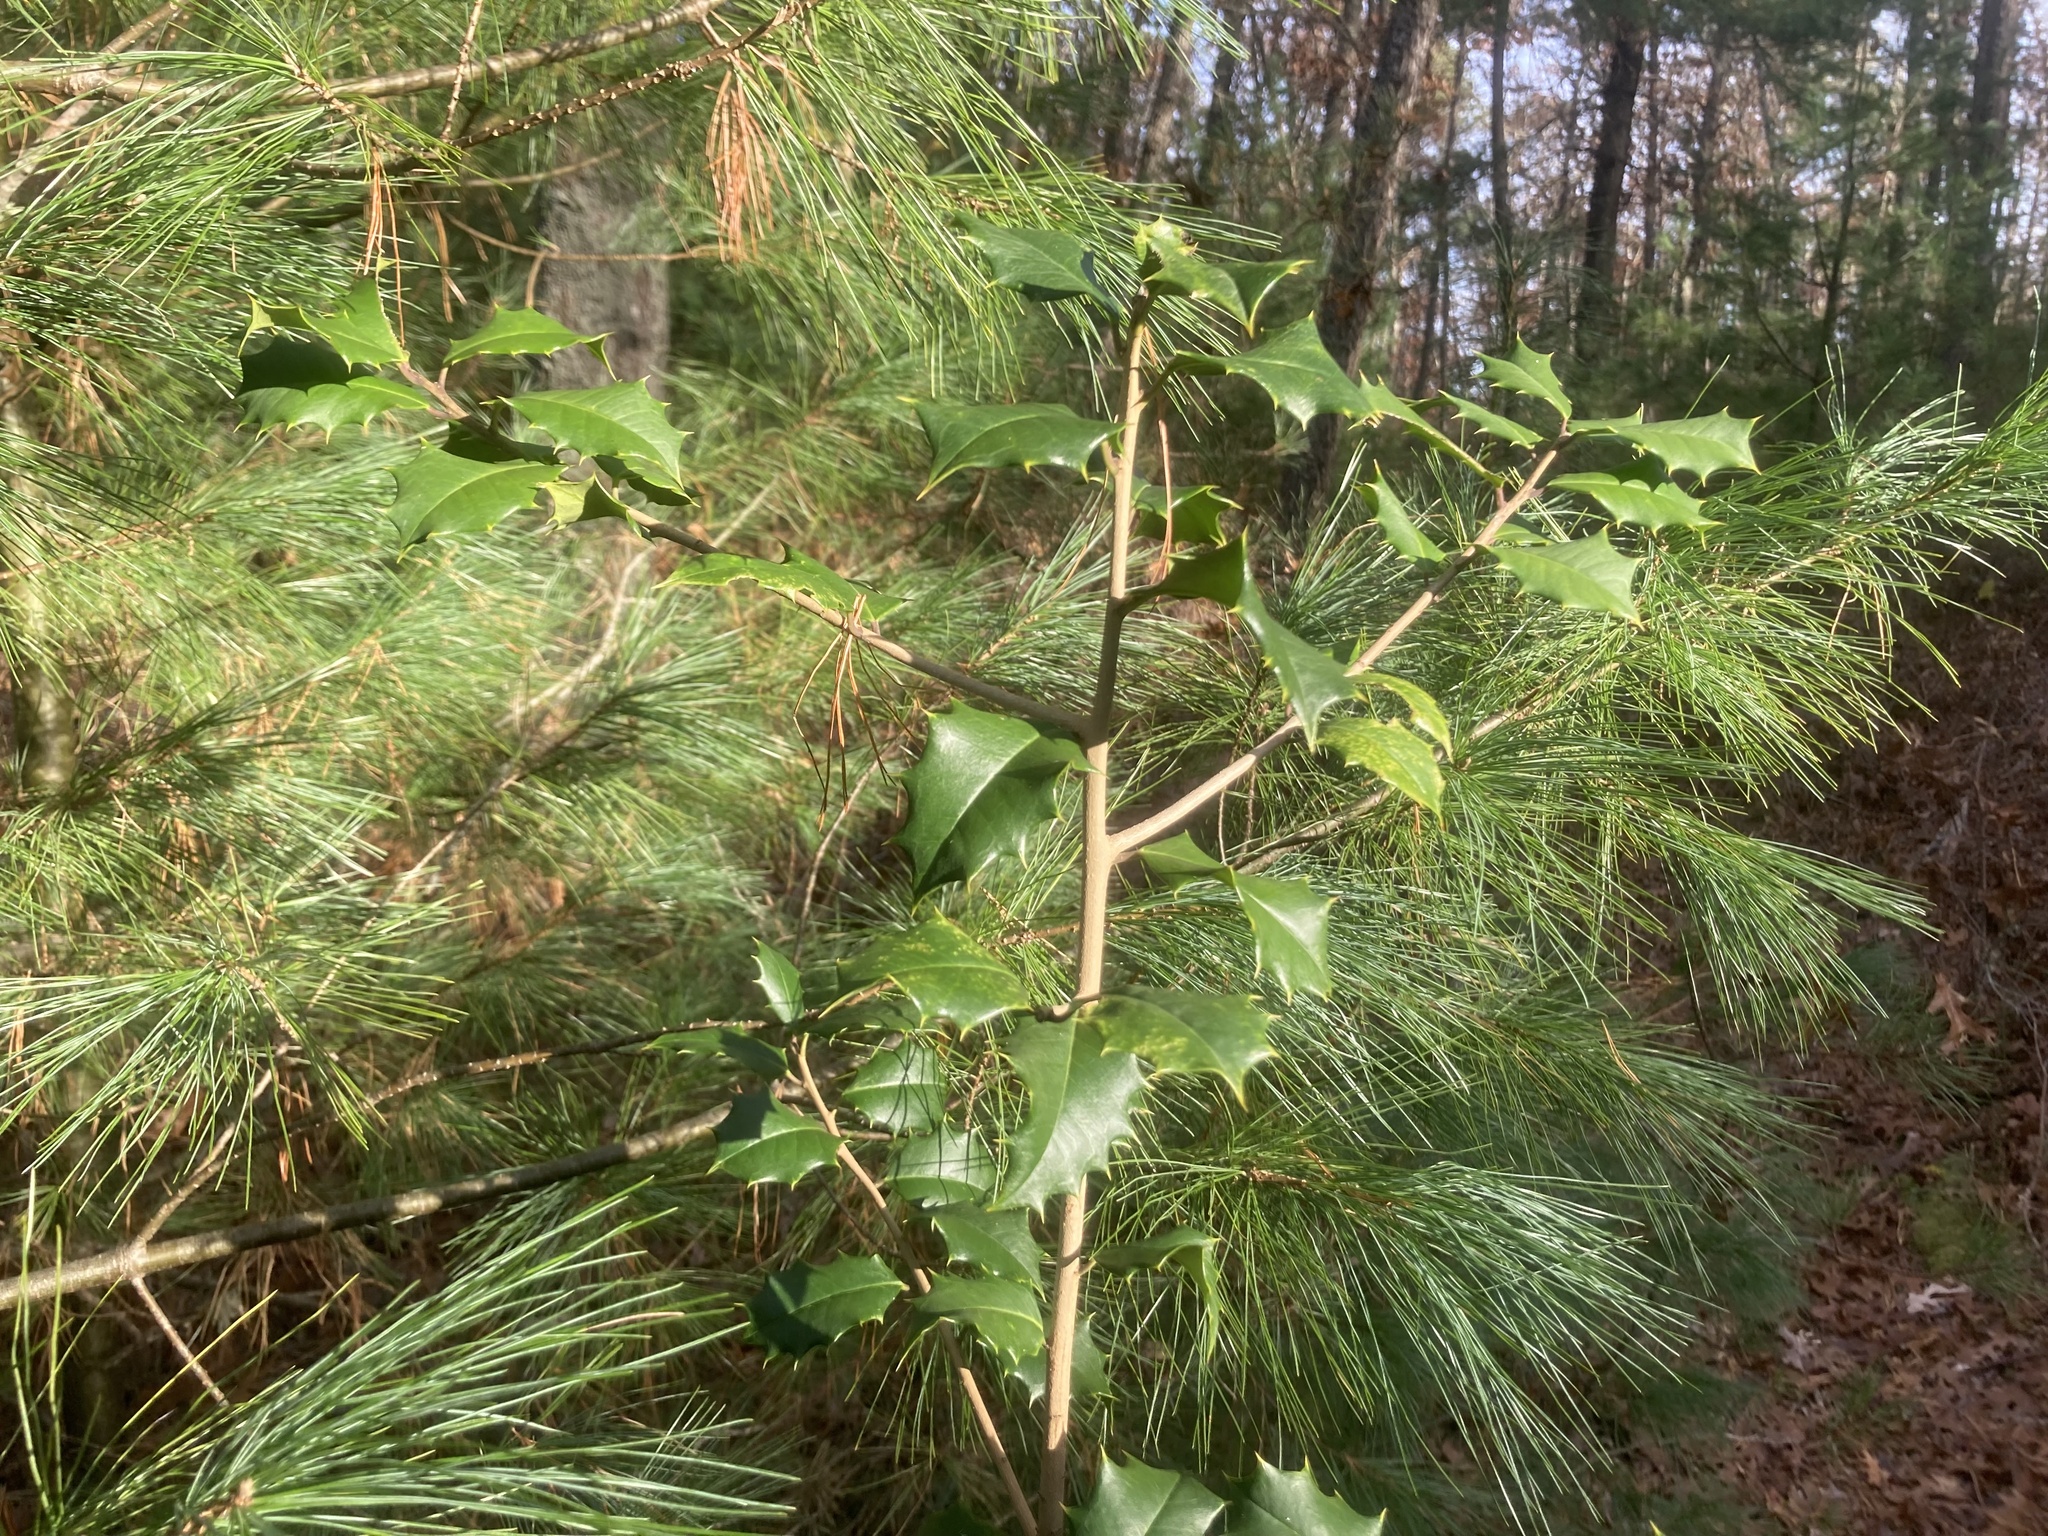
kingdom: Plantae
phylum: Tracheophyta
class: Magnoliopsida
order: Aquifoliales
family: Aquifoliaceae
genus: Ilex
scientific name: Ilex opaca
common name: American holly
